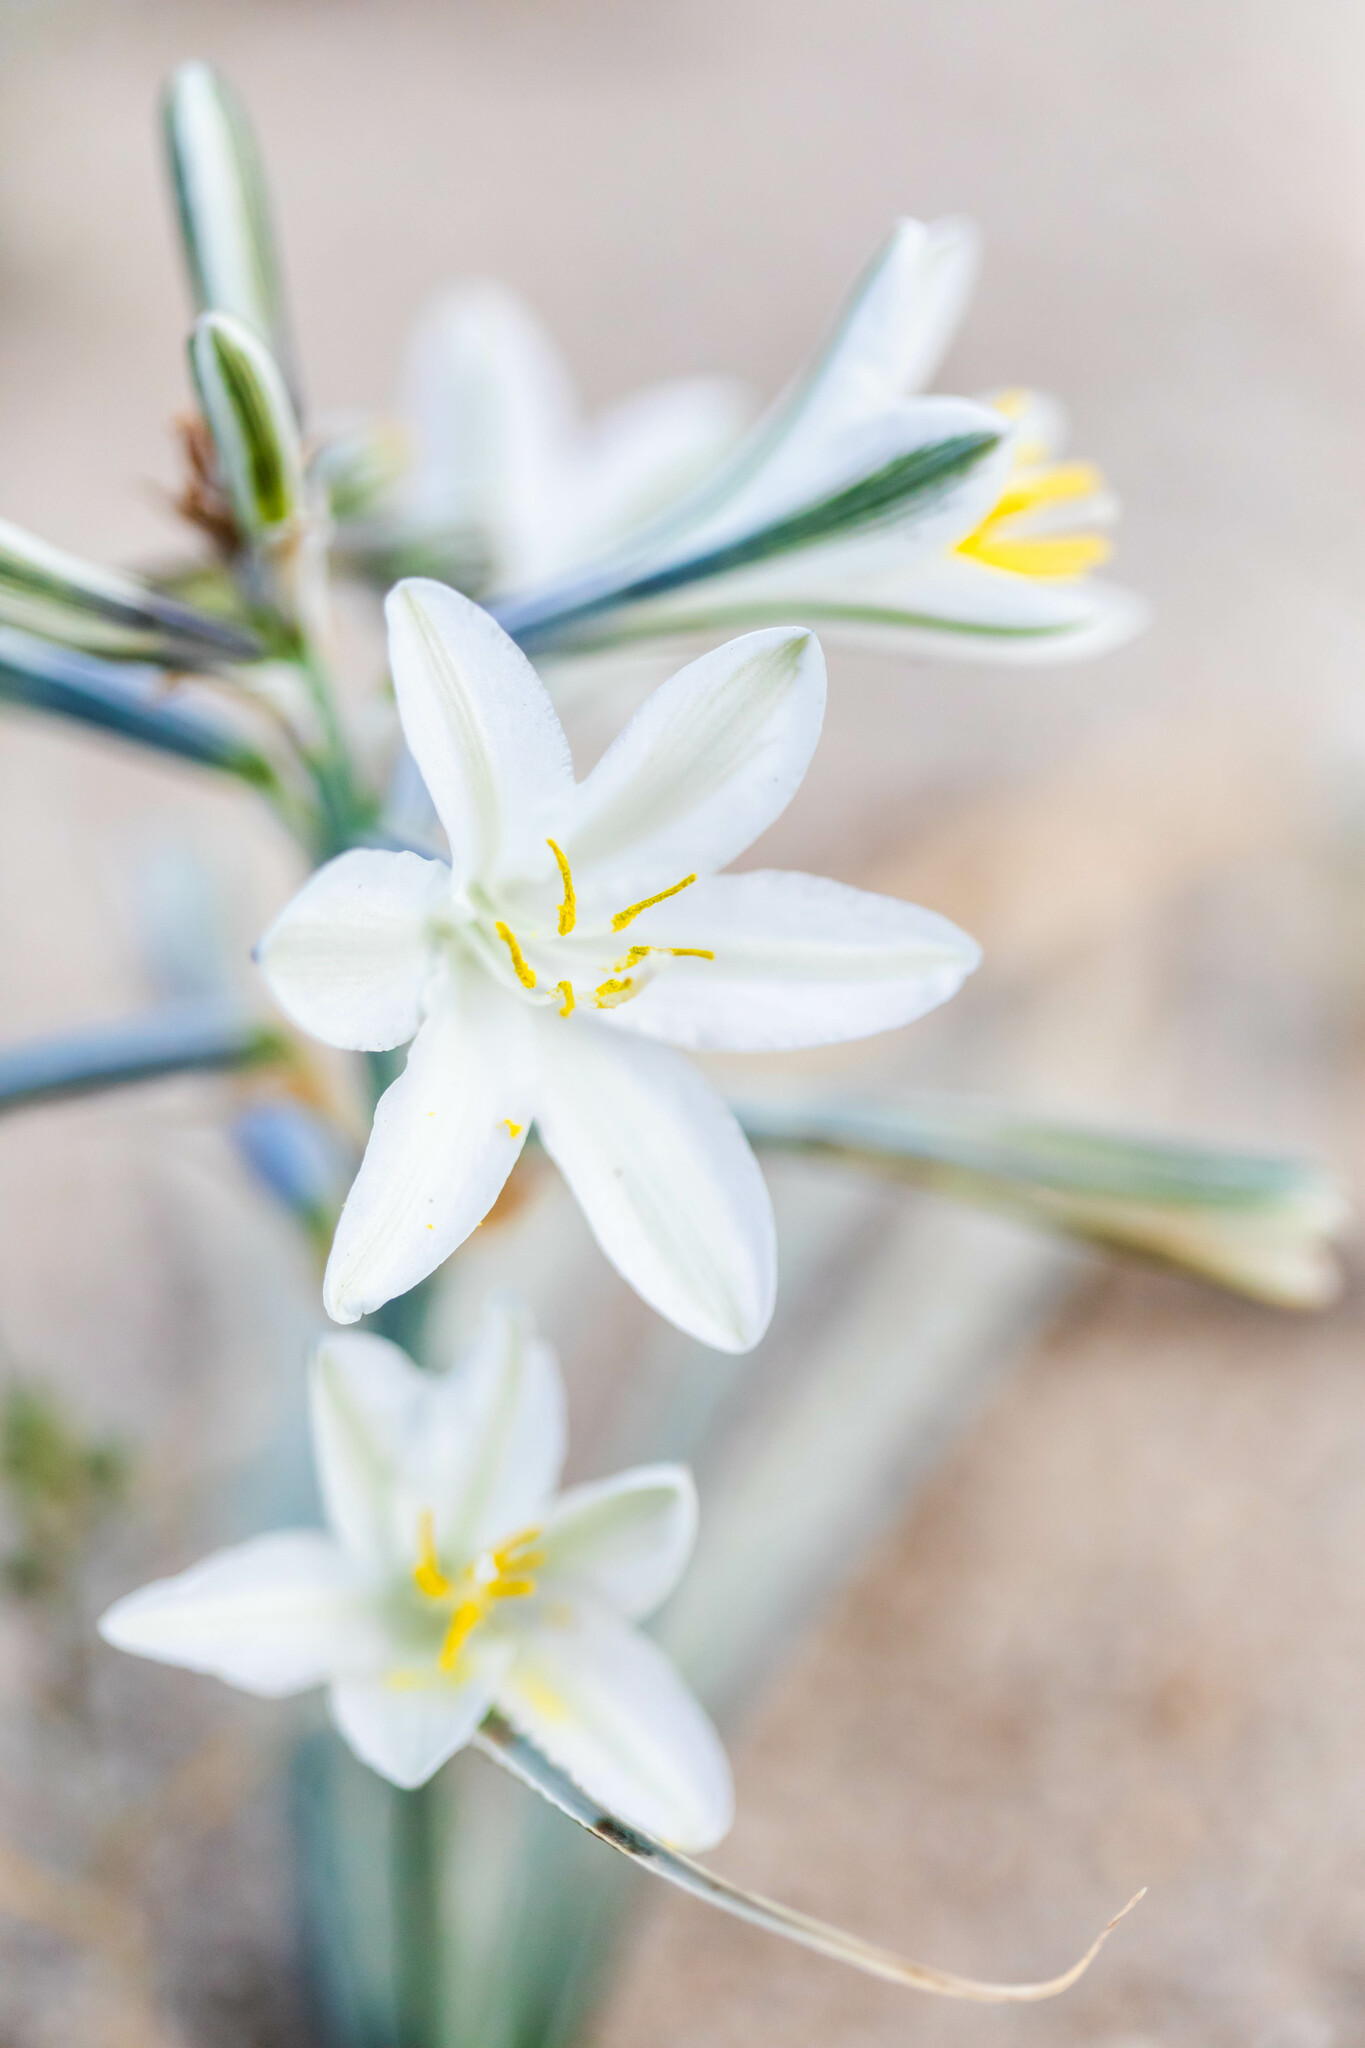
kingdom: Plantae
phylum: Tracheophyta
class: Liliopsida
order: Asparagales
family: Asparagaceae
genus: Hesperocallis
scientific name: Hesperocallis undulata
